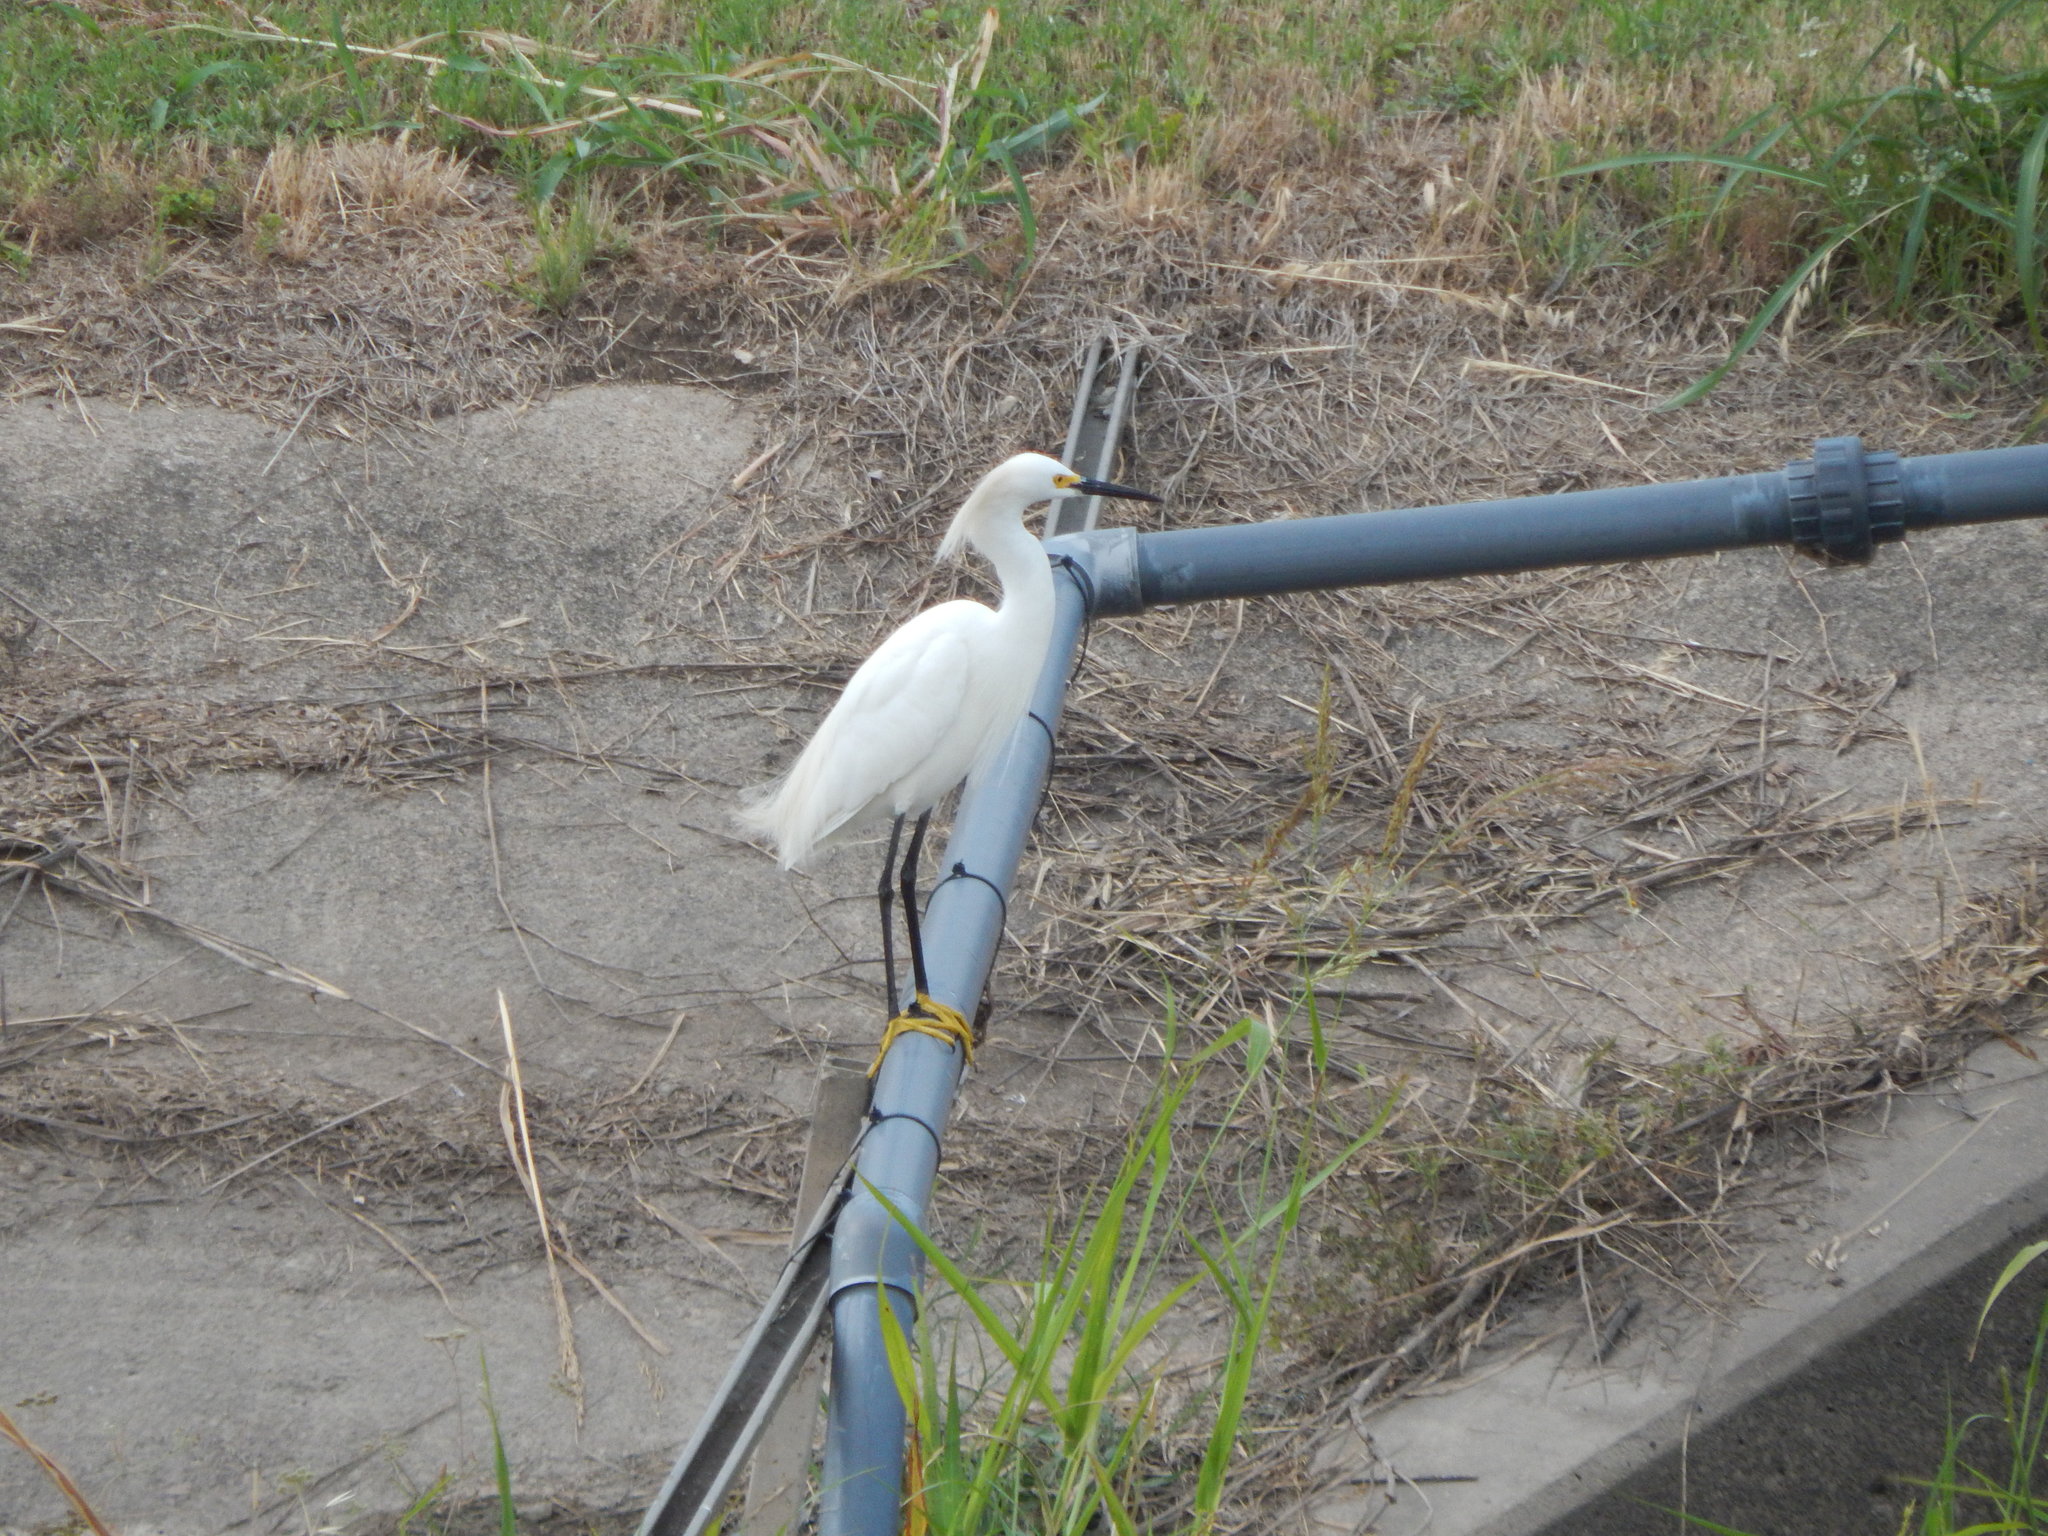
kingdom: Animalia
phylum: Chordata
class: Aves
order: Pelecaniformes
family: Ardeidae
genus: Egretta
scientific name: Egretta thula
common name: Snowy egret
